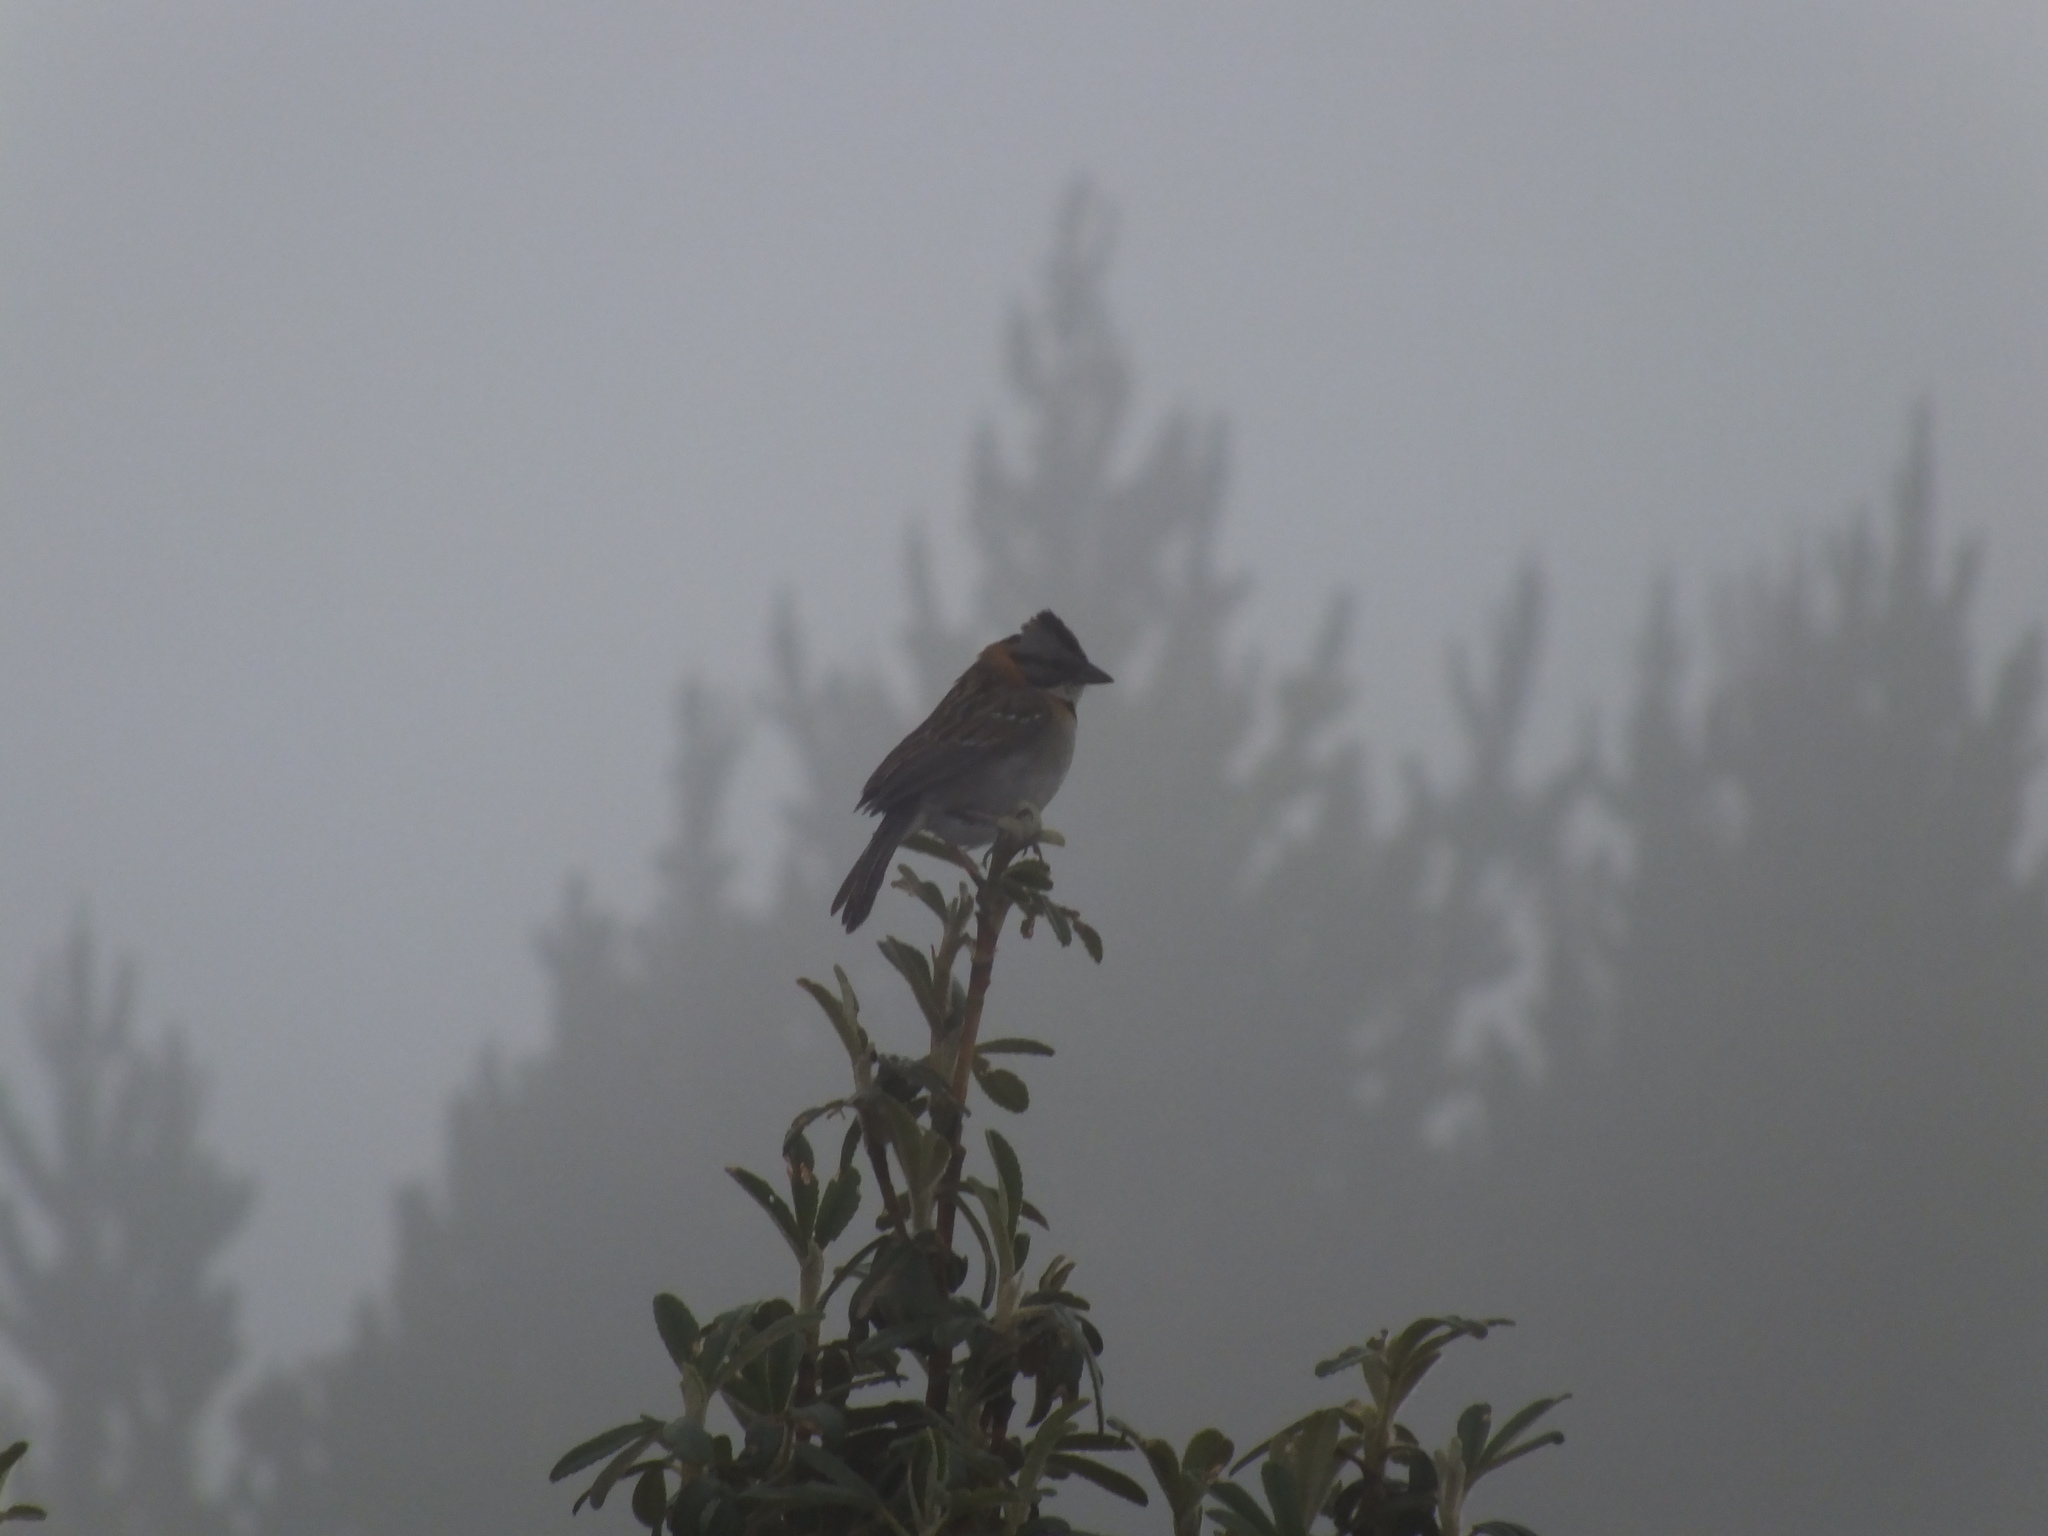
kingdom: Animalia
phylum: Chordata
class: Aves
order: Passeriformes
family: Passerellidae
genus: Zonotrichia
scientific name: Zonotrichia capensis
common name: Rufous-collared sparrow
